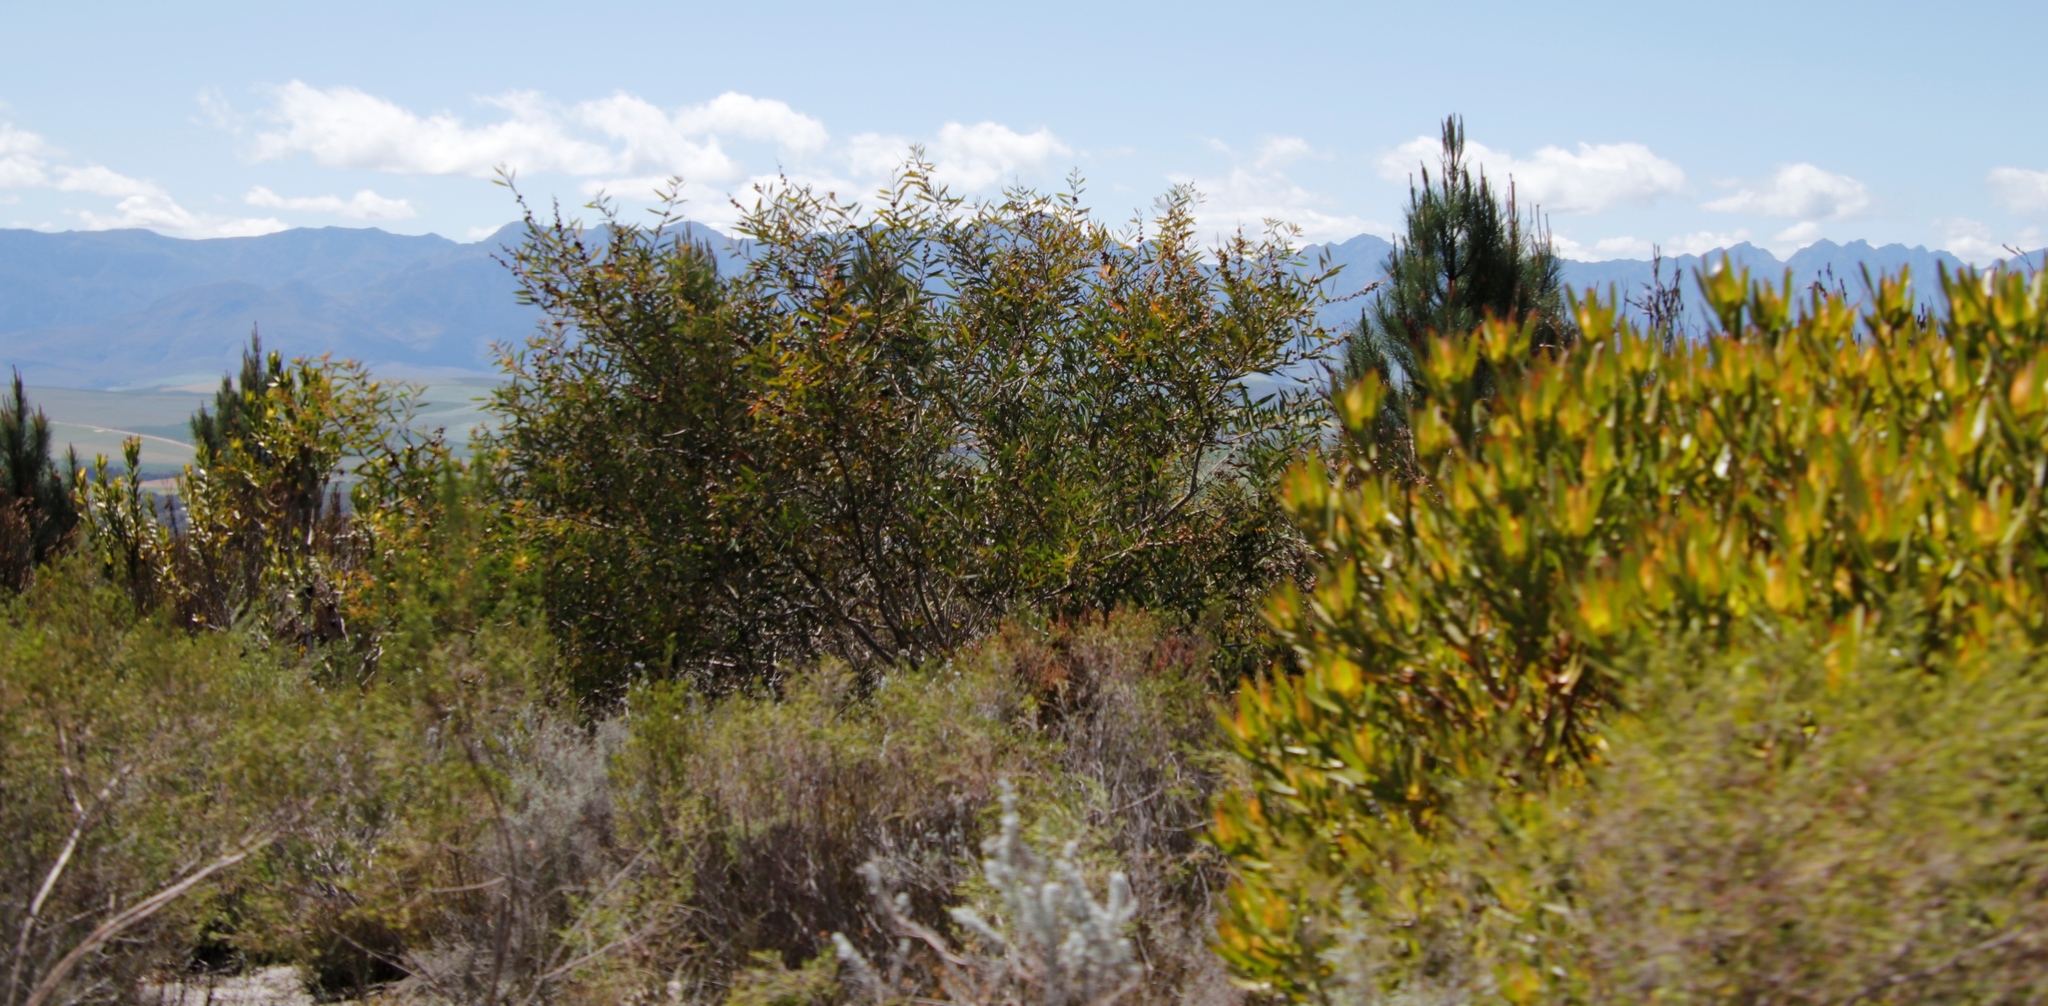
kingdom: Plantae
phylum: Tracheophyta
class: Magnoliopsida
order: Proteales
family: Proteaceae
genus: Leucadendron
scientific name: Leucadendron laureolum
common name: Golden sunshinebush
